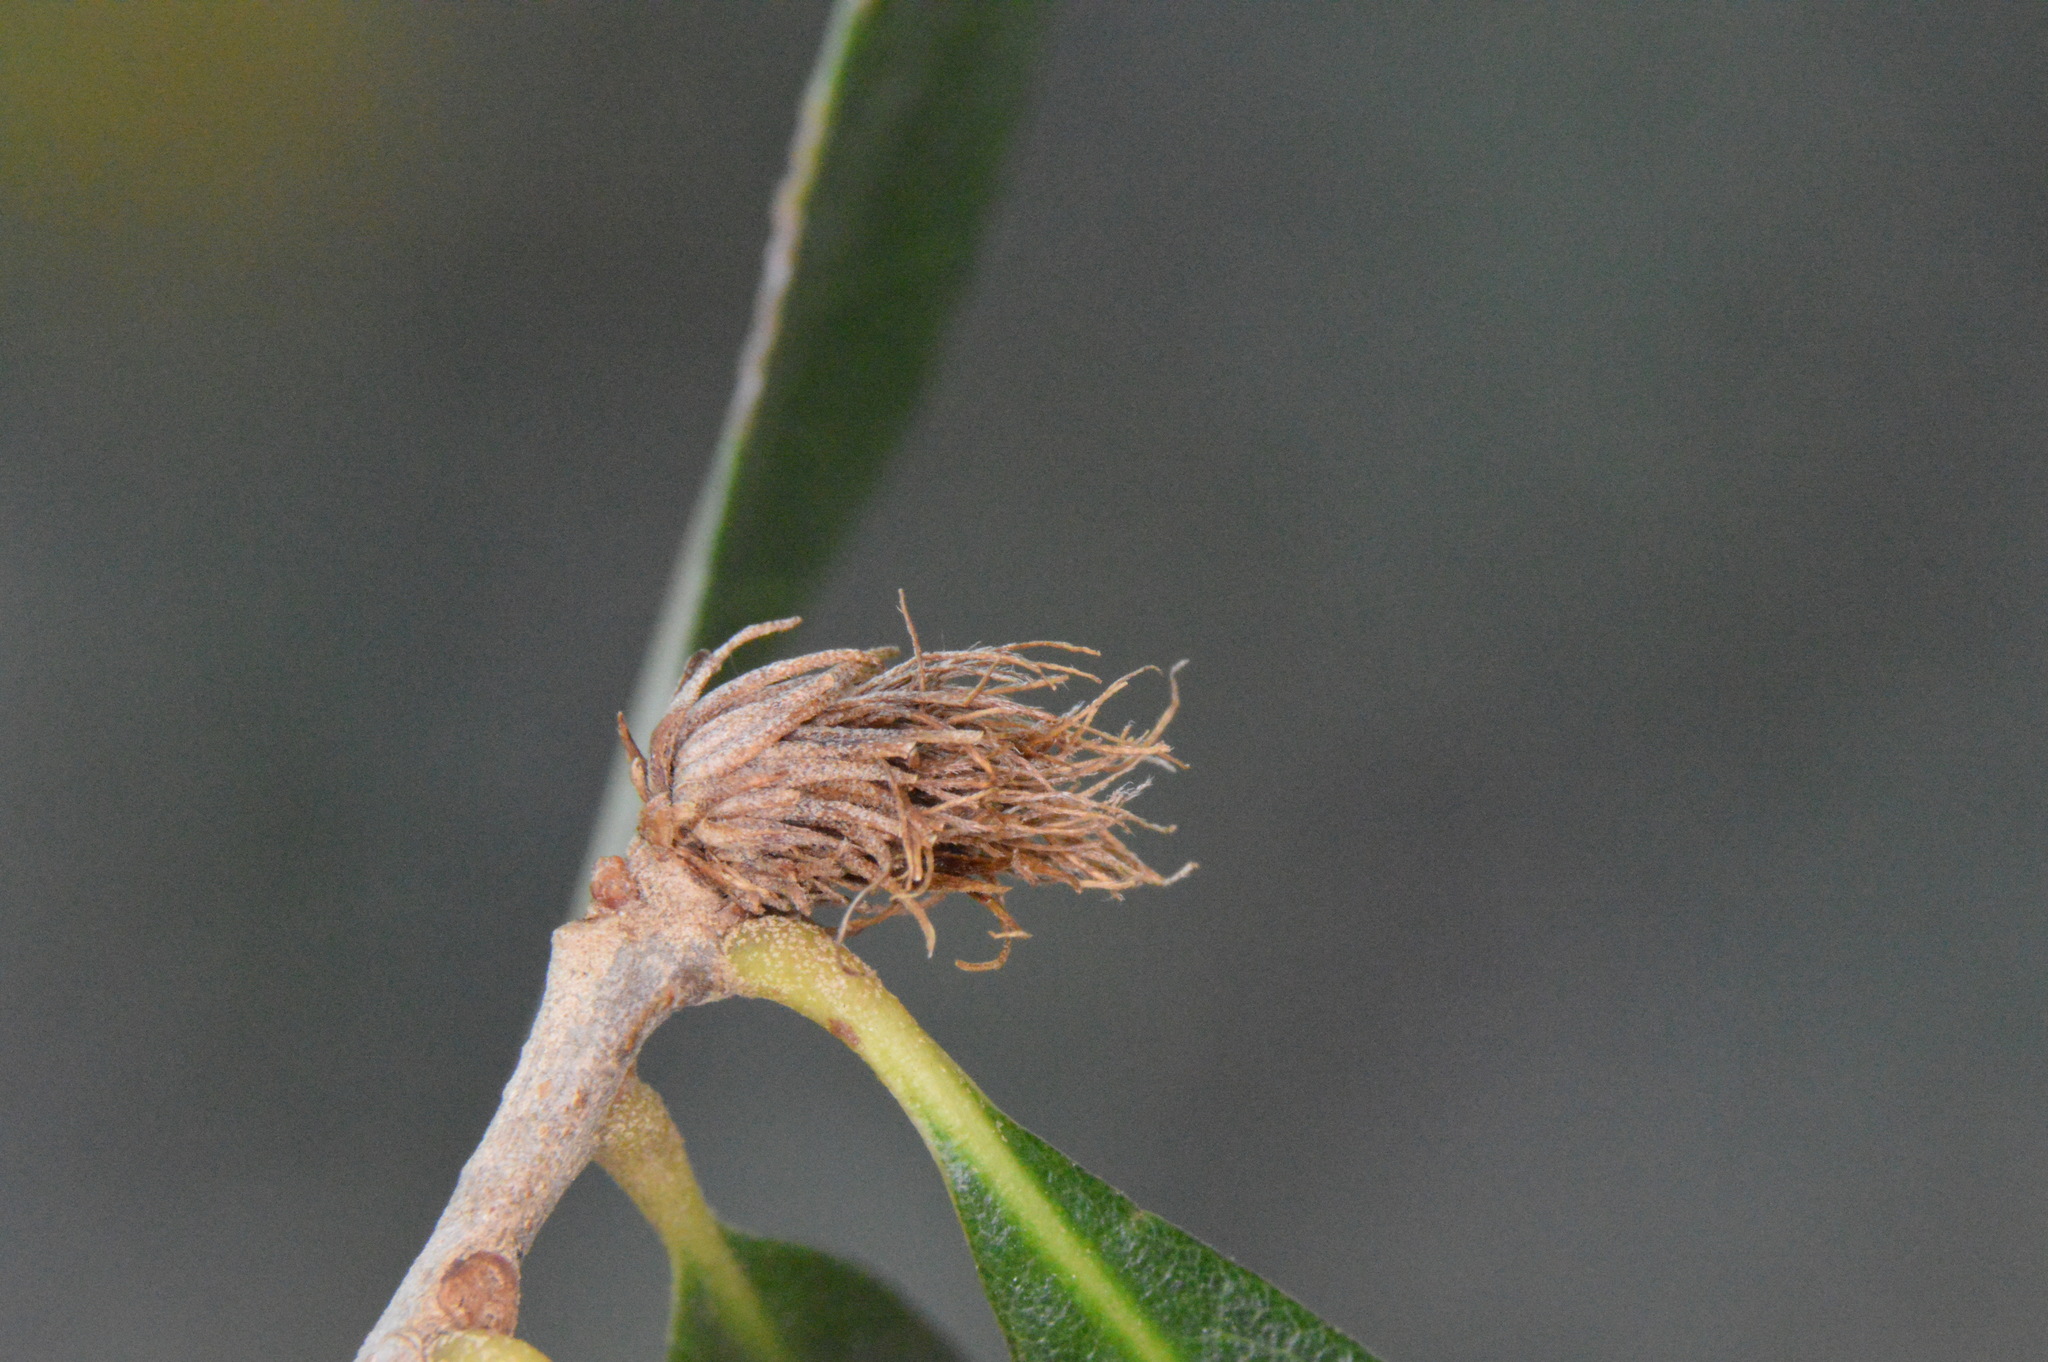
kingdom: Animalia
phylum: Arthropoda
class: Insecta
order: Hymenoptera
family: Cynipidae
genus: Andricus
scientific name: Andricus quercusfoliatus
